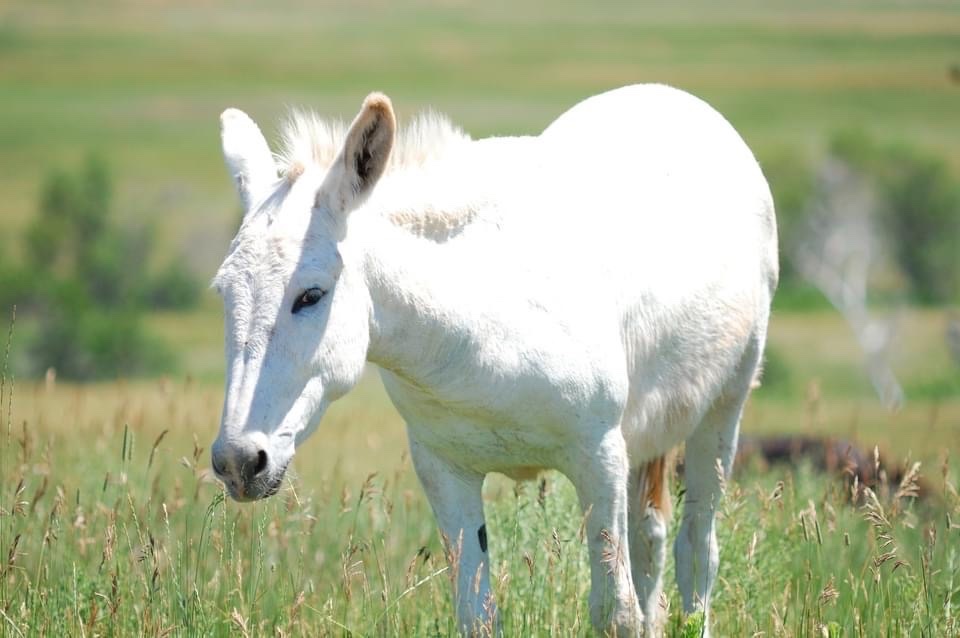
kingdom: Animalia
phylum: Chordata
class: Mammalia
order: Perissodactyla
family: Equidae
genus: Equus
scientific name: Equus asinus
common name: Ass
